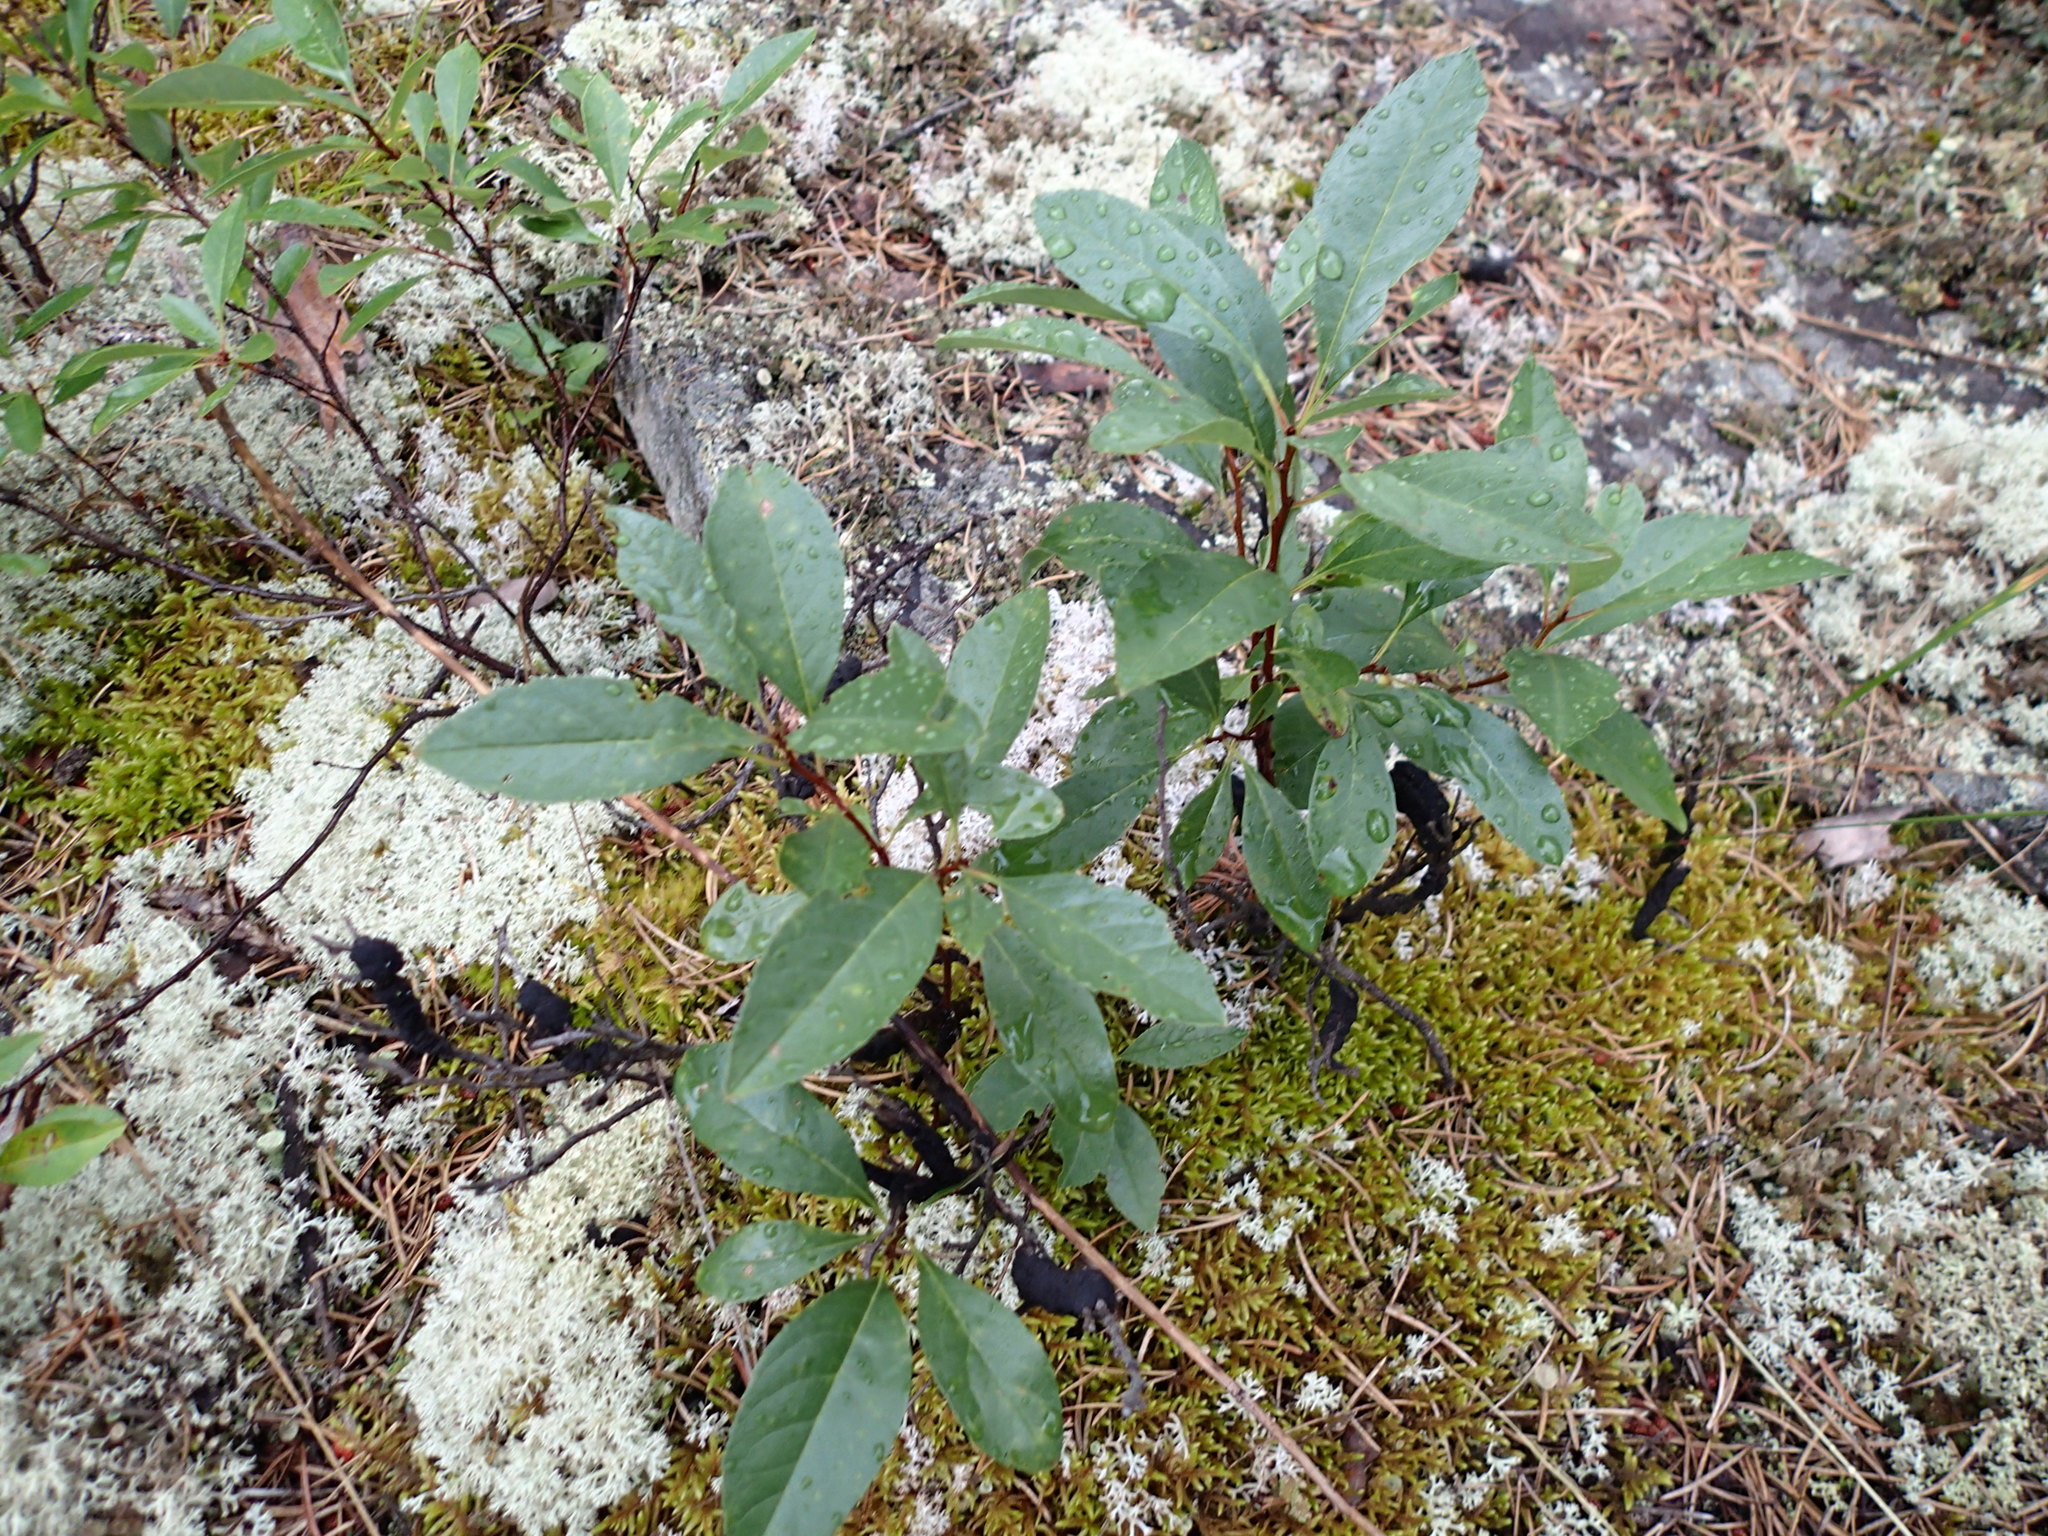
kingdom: Plantae
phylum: Tracheophyta
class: Magnoliopsida
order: Rosales
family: Rosaceae
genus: Prunus
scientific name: Prunus pumila
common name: Dwarf cherry
